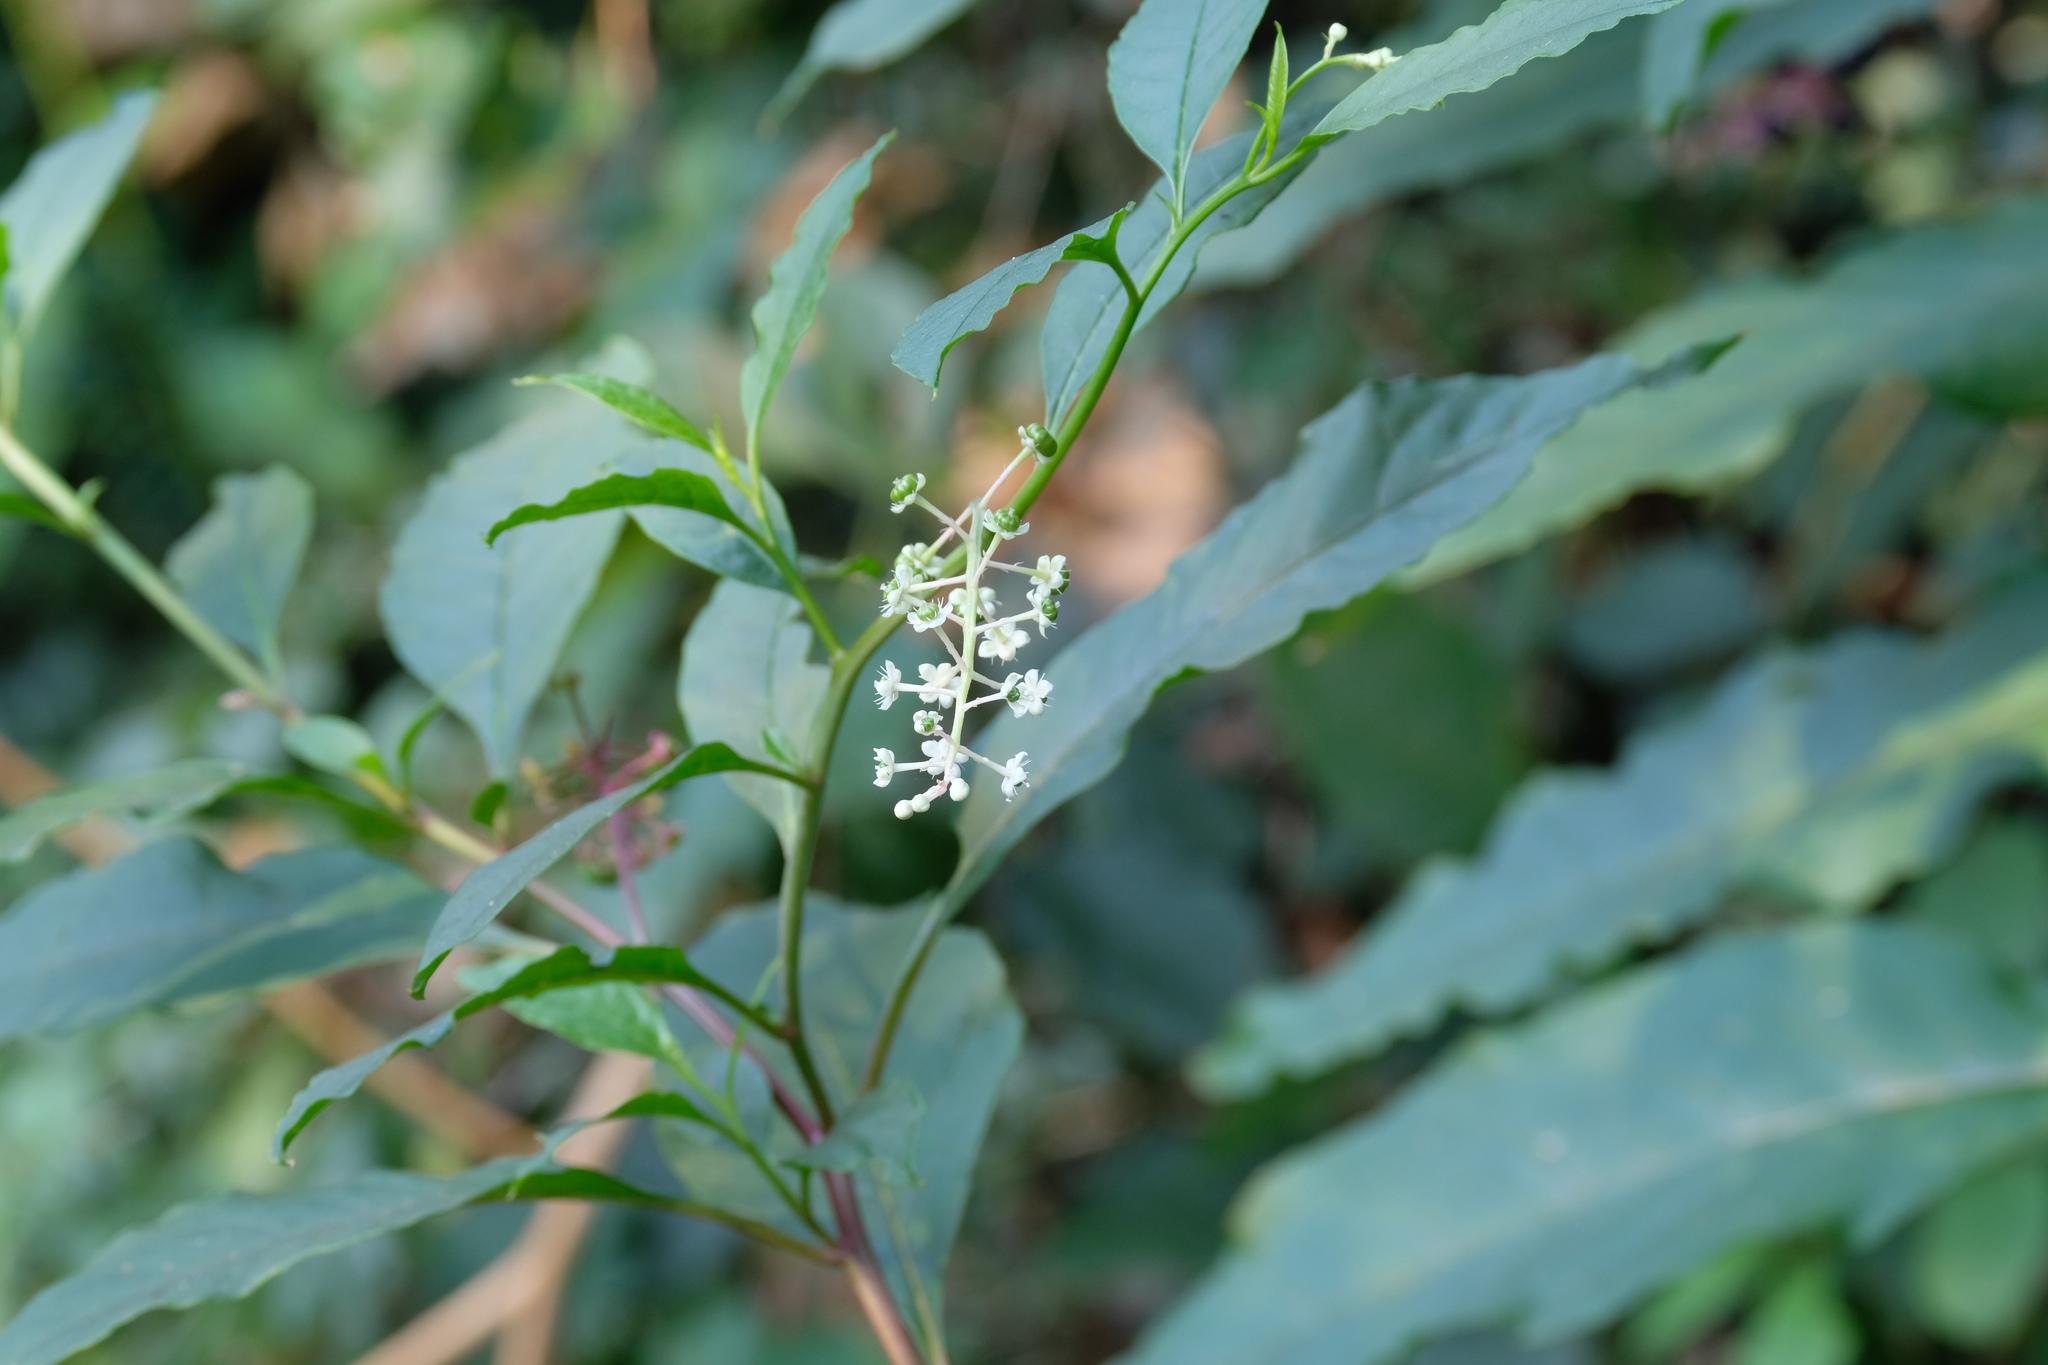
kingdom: Plantae
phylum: Tracheophyta
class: Magnoliopsida
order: Caryophyllales
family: Phytolaccaceae
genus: Phytolacca
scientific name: Phytolacca americana
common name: American pokeweed
